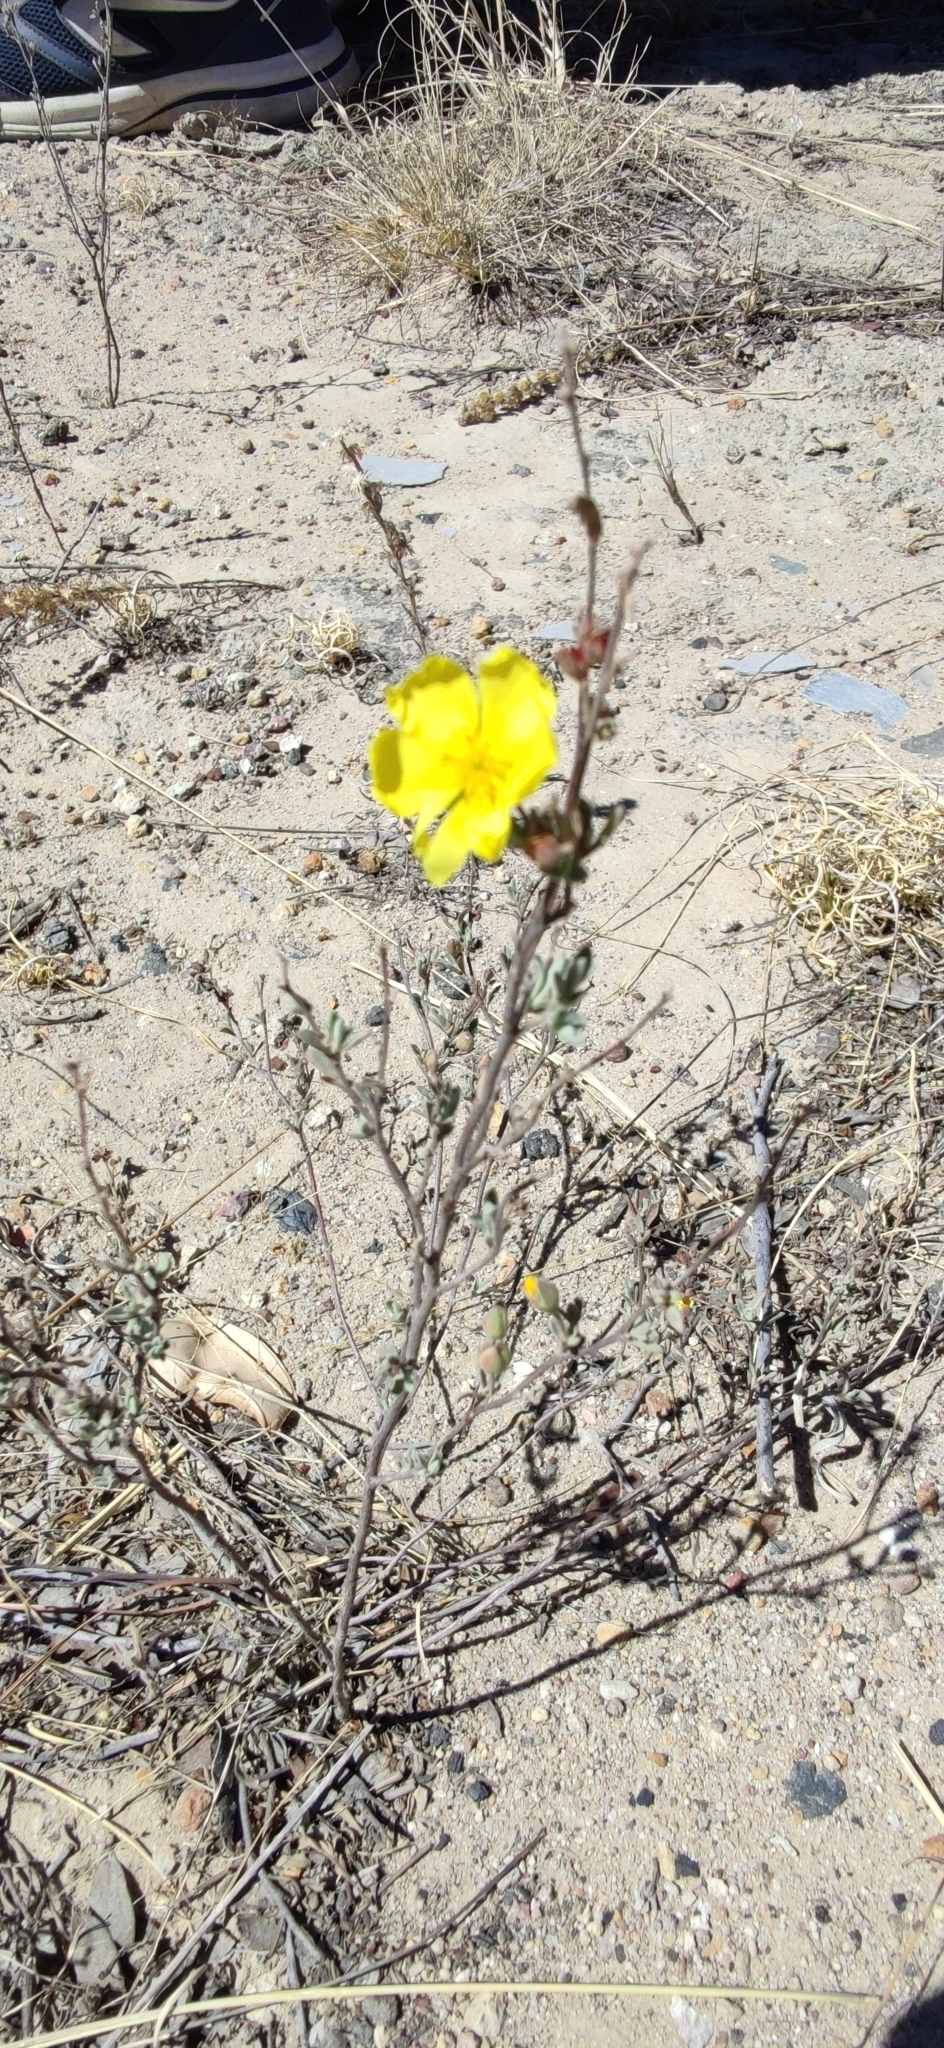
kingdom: Plantae
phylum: Tracheophyta
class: Magnoliopsida
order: Malvales
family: Cistaceae
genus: Crocanthemum
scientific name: Crocanthemum glomeratum
